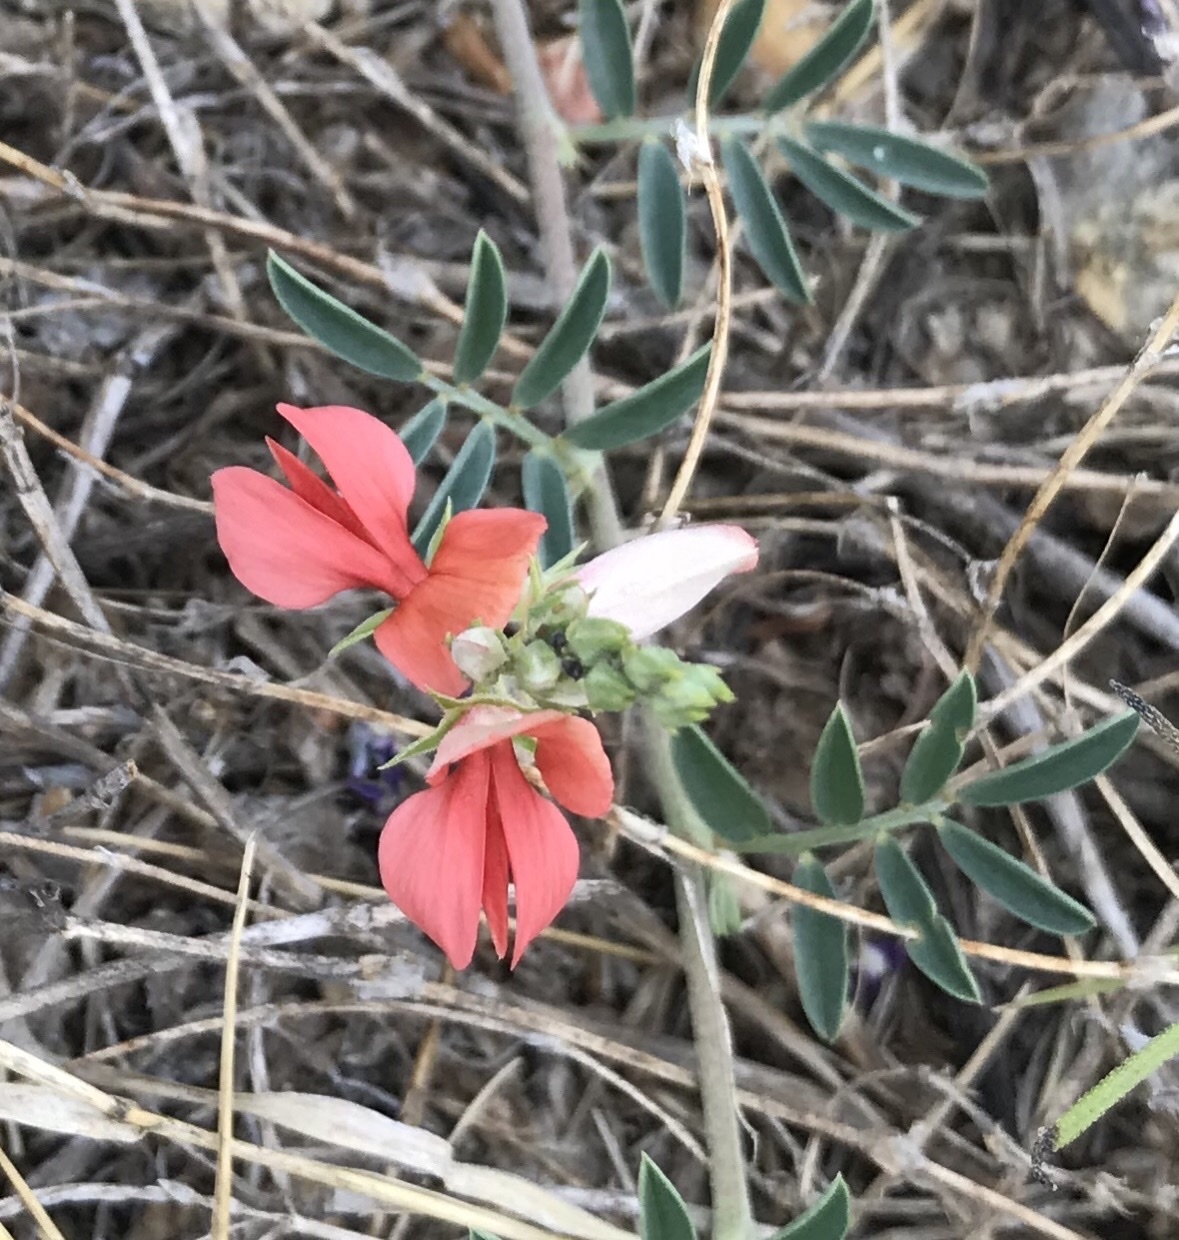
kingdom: Plantae
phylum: Tracheophyta
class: Magnoliopsida
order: Fabales
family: Fabaceae
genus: Indigofera
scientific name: Indigofera miniata
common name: Coast indigo
